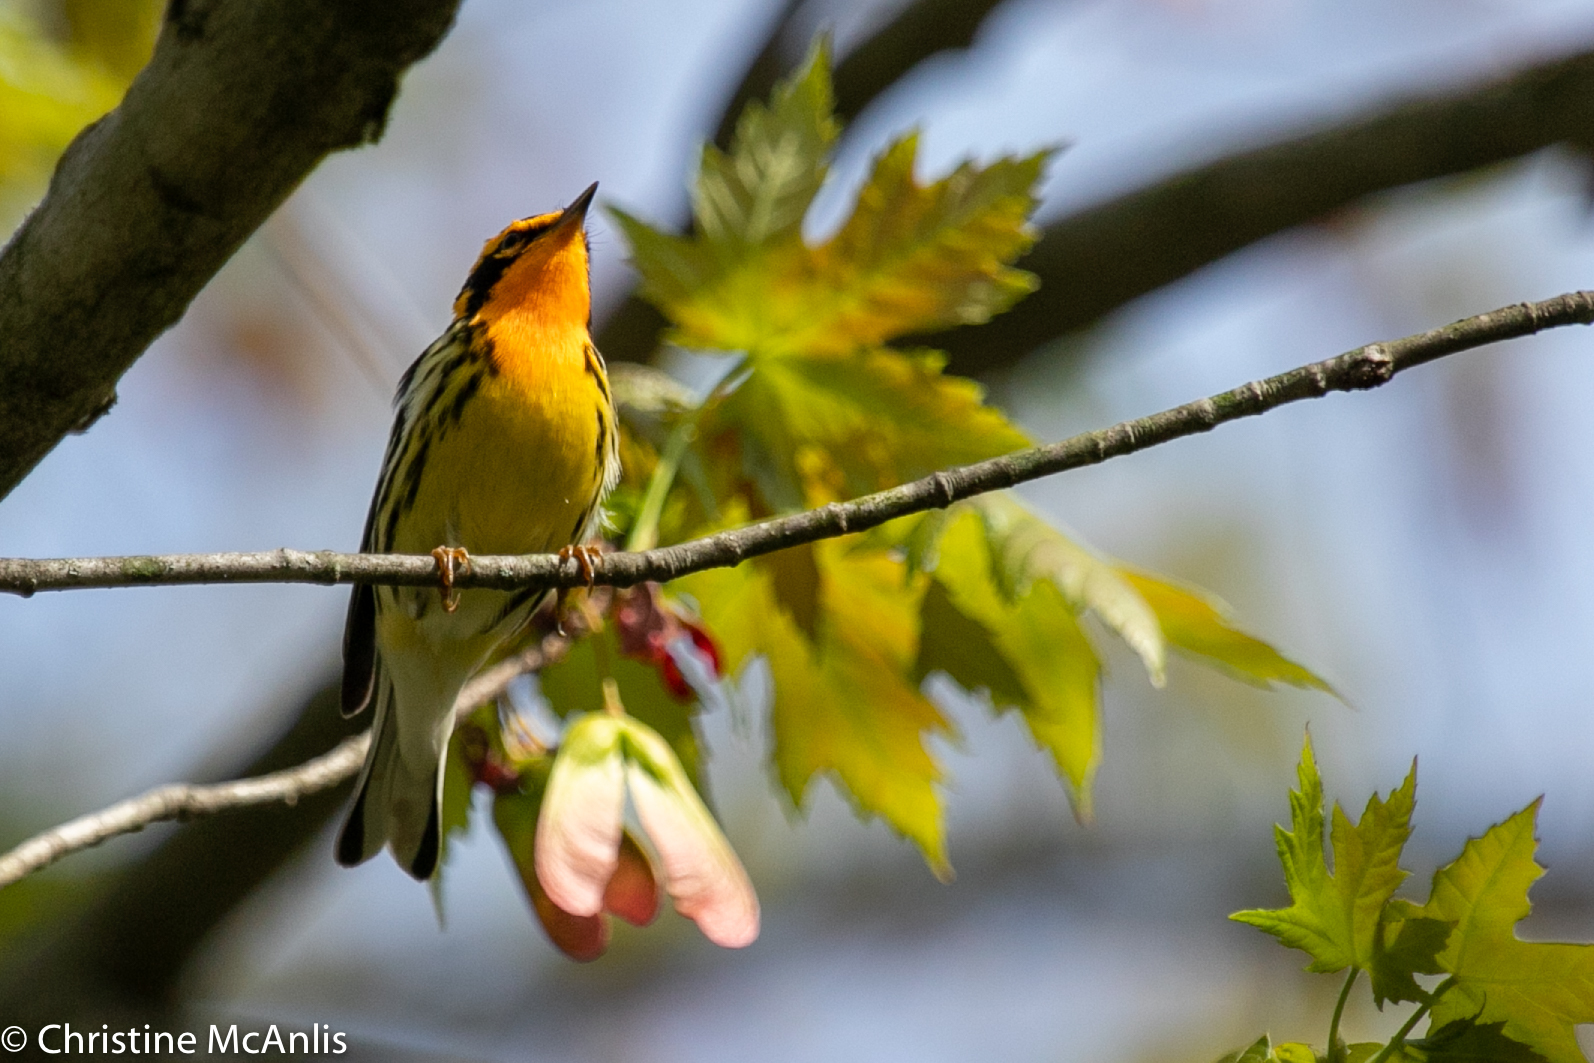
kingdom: Animalia
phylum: Chordata
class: Aves
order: Passeriformes
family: Parulidae
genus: Setophaga
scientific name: Setophaga fusca
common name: Blackburnian warbler
